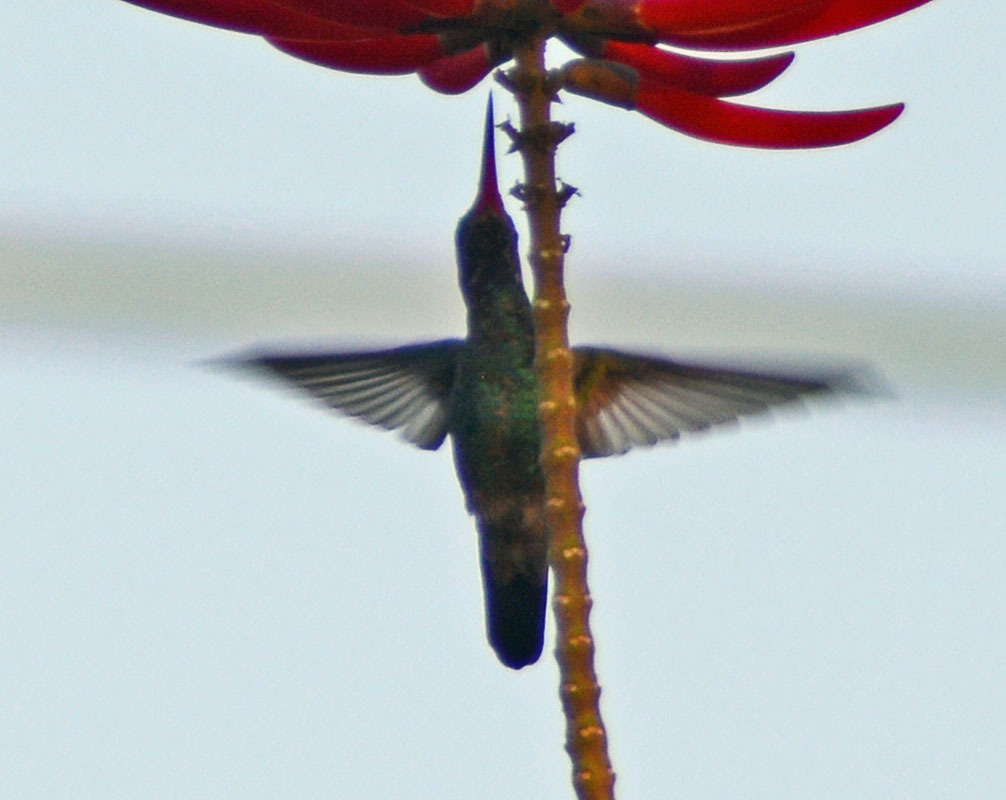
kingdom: Animalia
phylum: Chordata
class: Aves
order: Apodiformes
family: Trochilidae
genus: Cynanthus
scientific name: Cynanthus latirostris
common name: Broad-billed hummingbird
